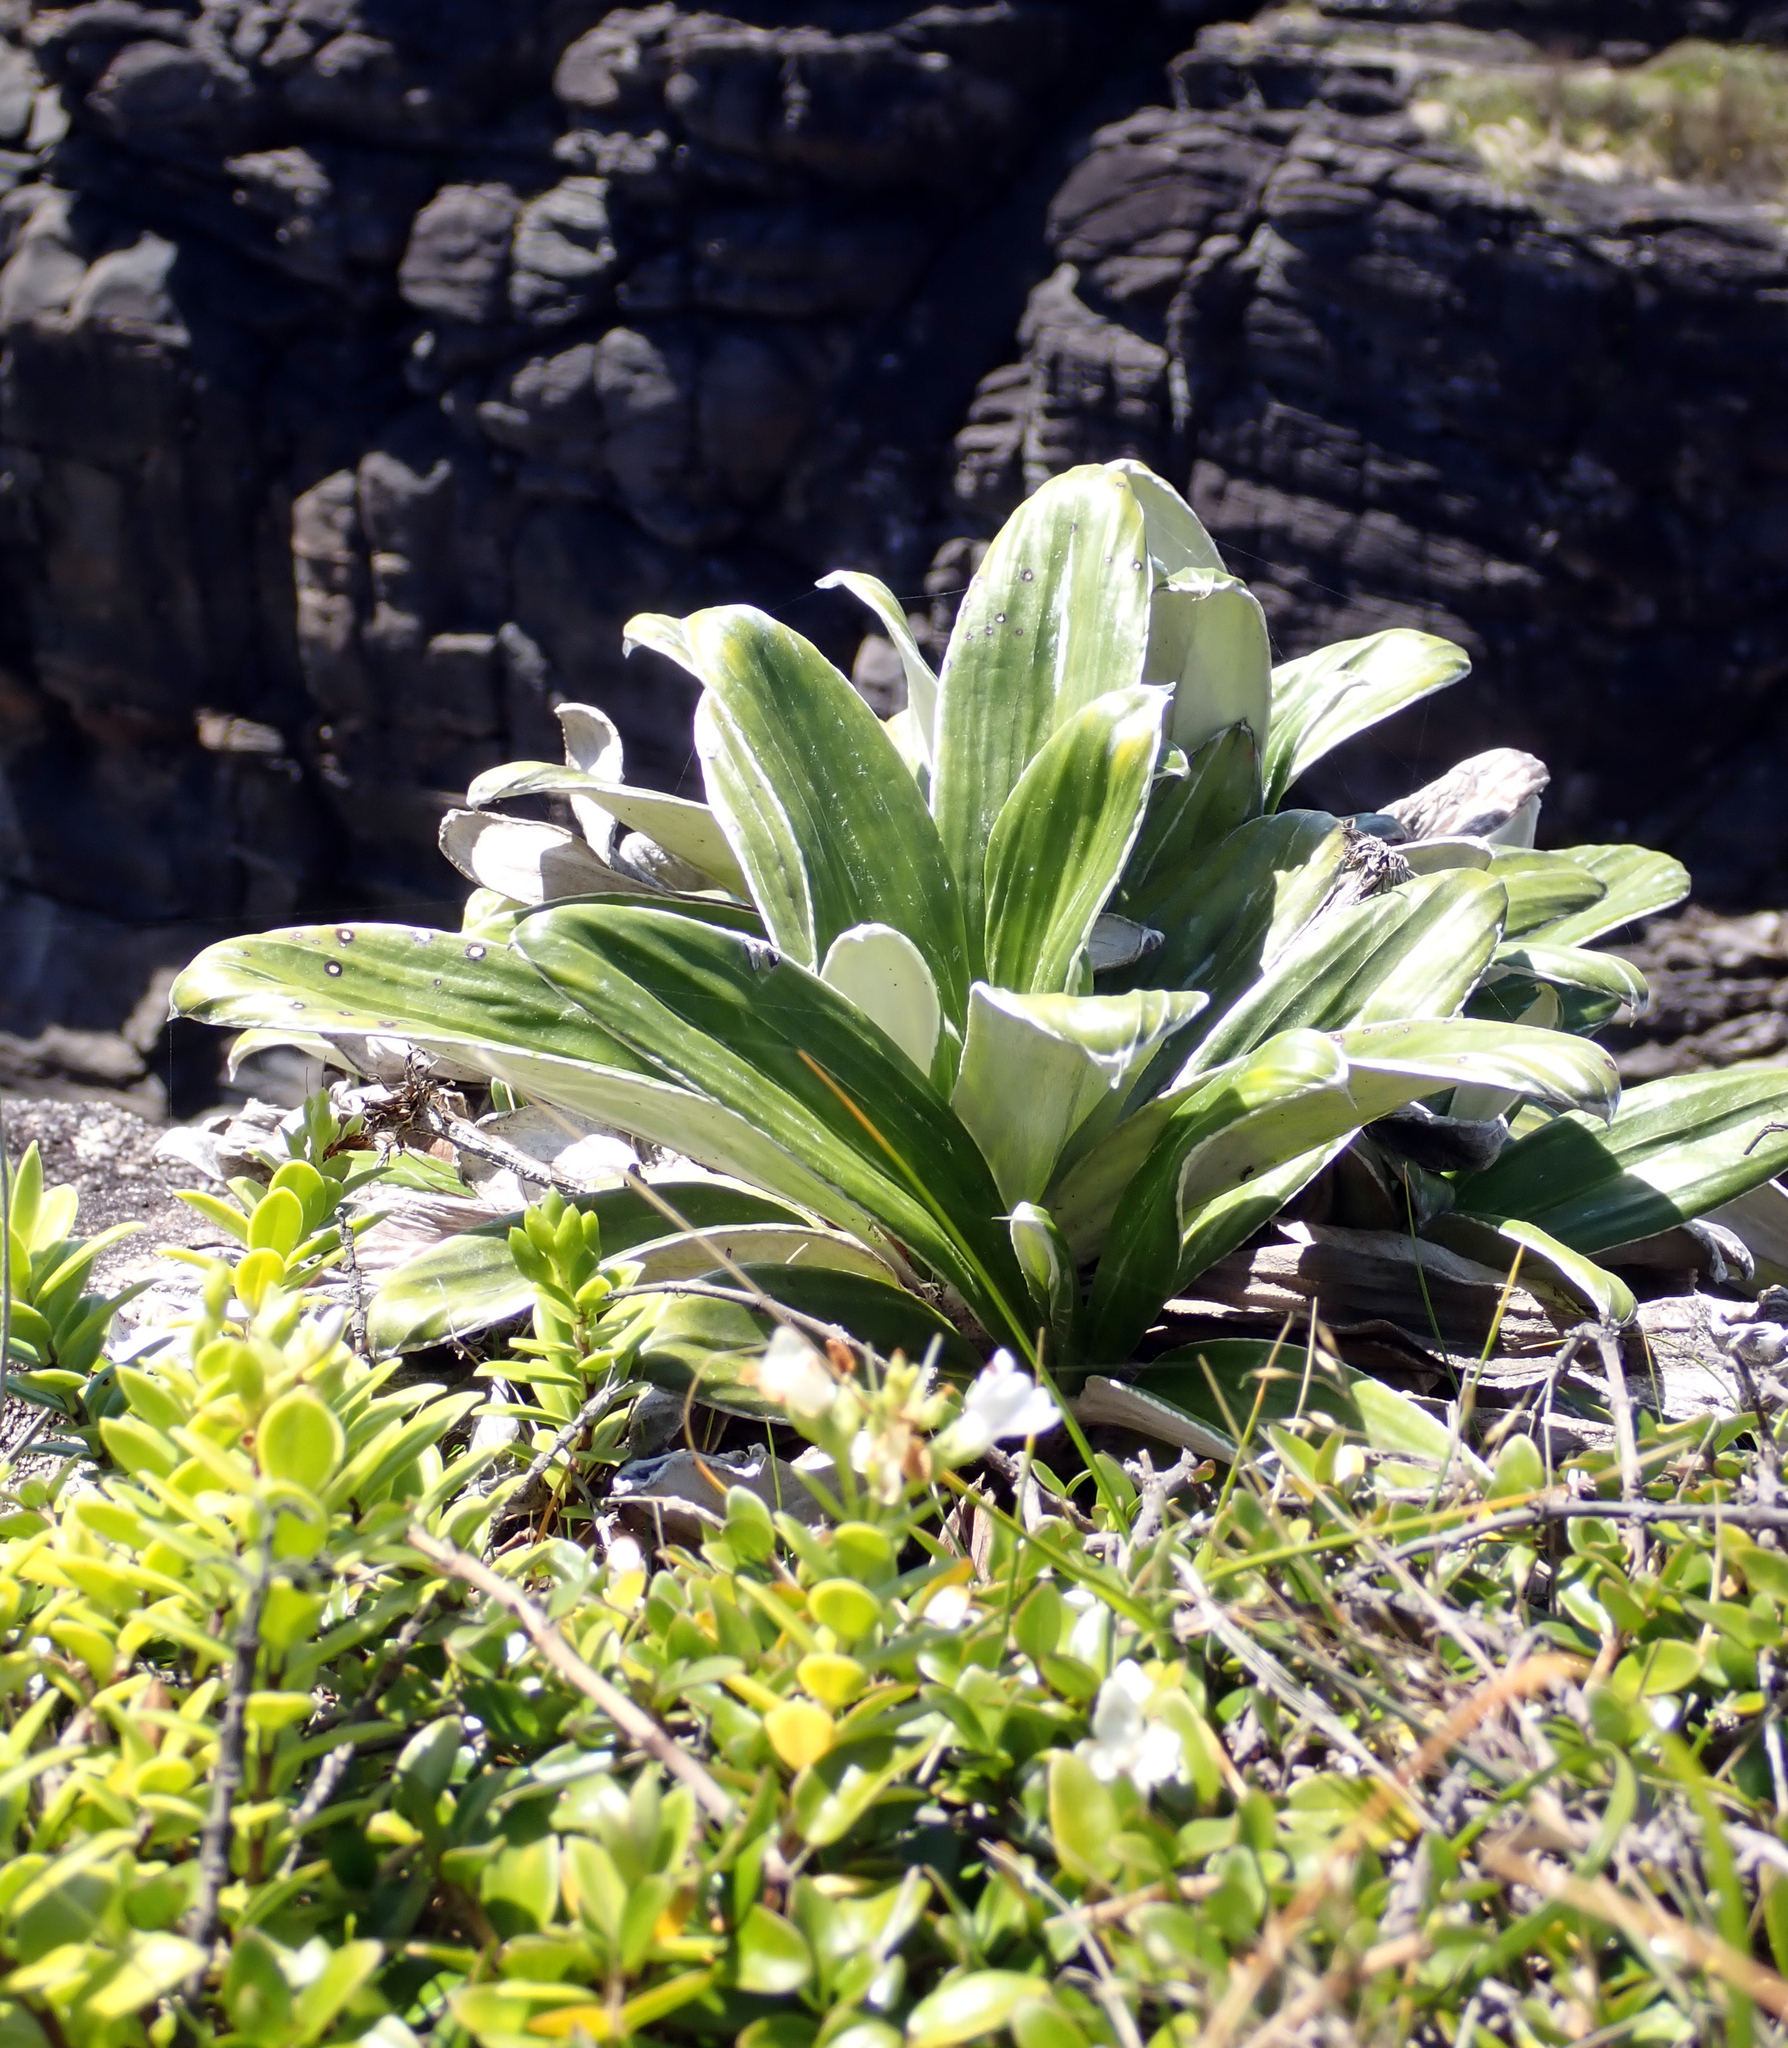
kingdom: Plantae
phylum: Tracheophyta
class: Magnoliopsida
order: Asterales
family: Asteraceae
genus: Celmisia
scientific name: Celmisia semicordata
